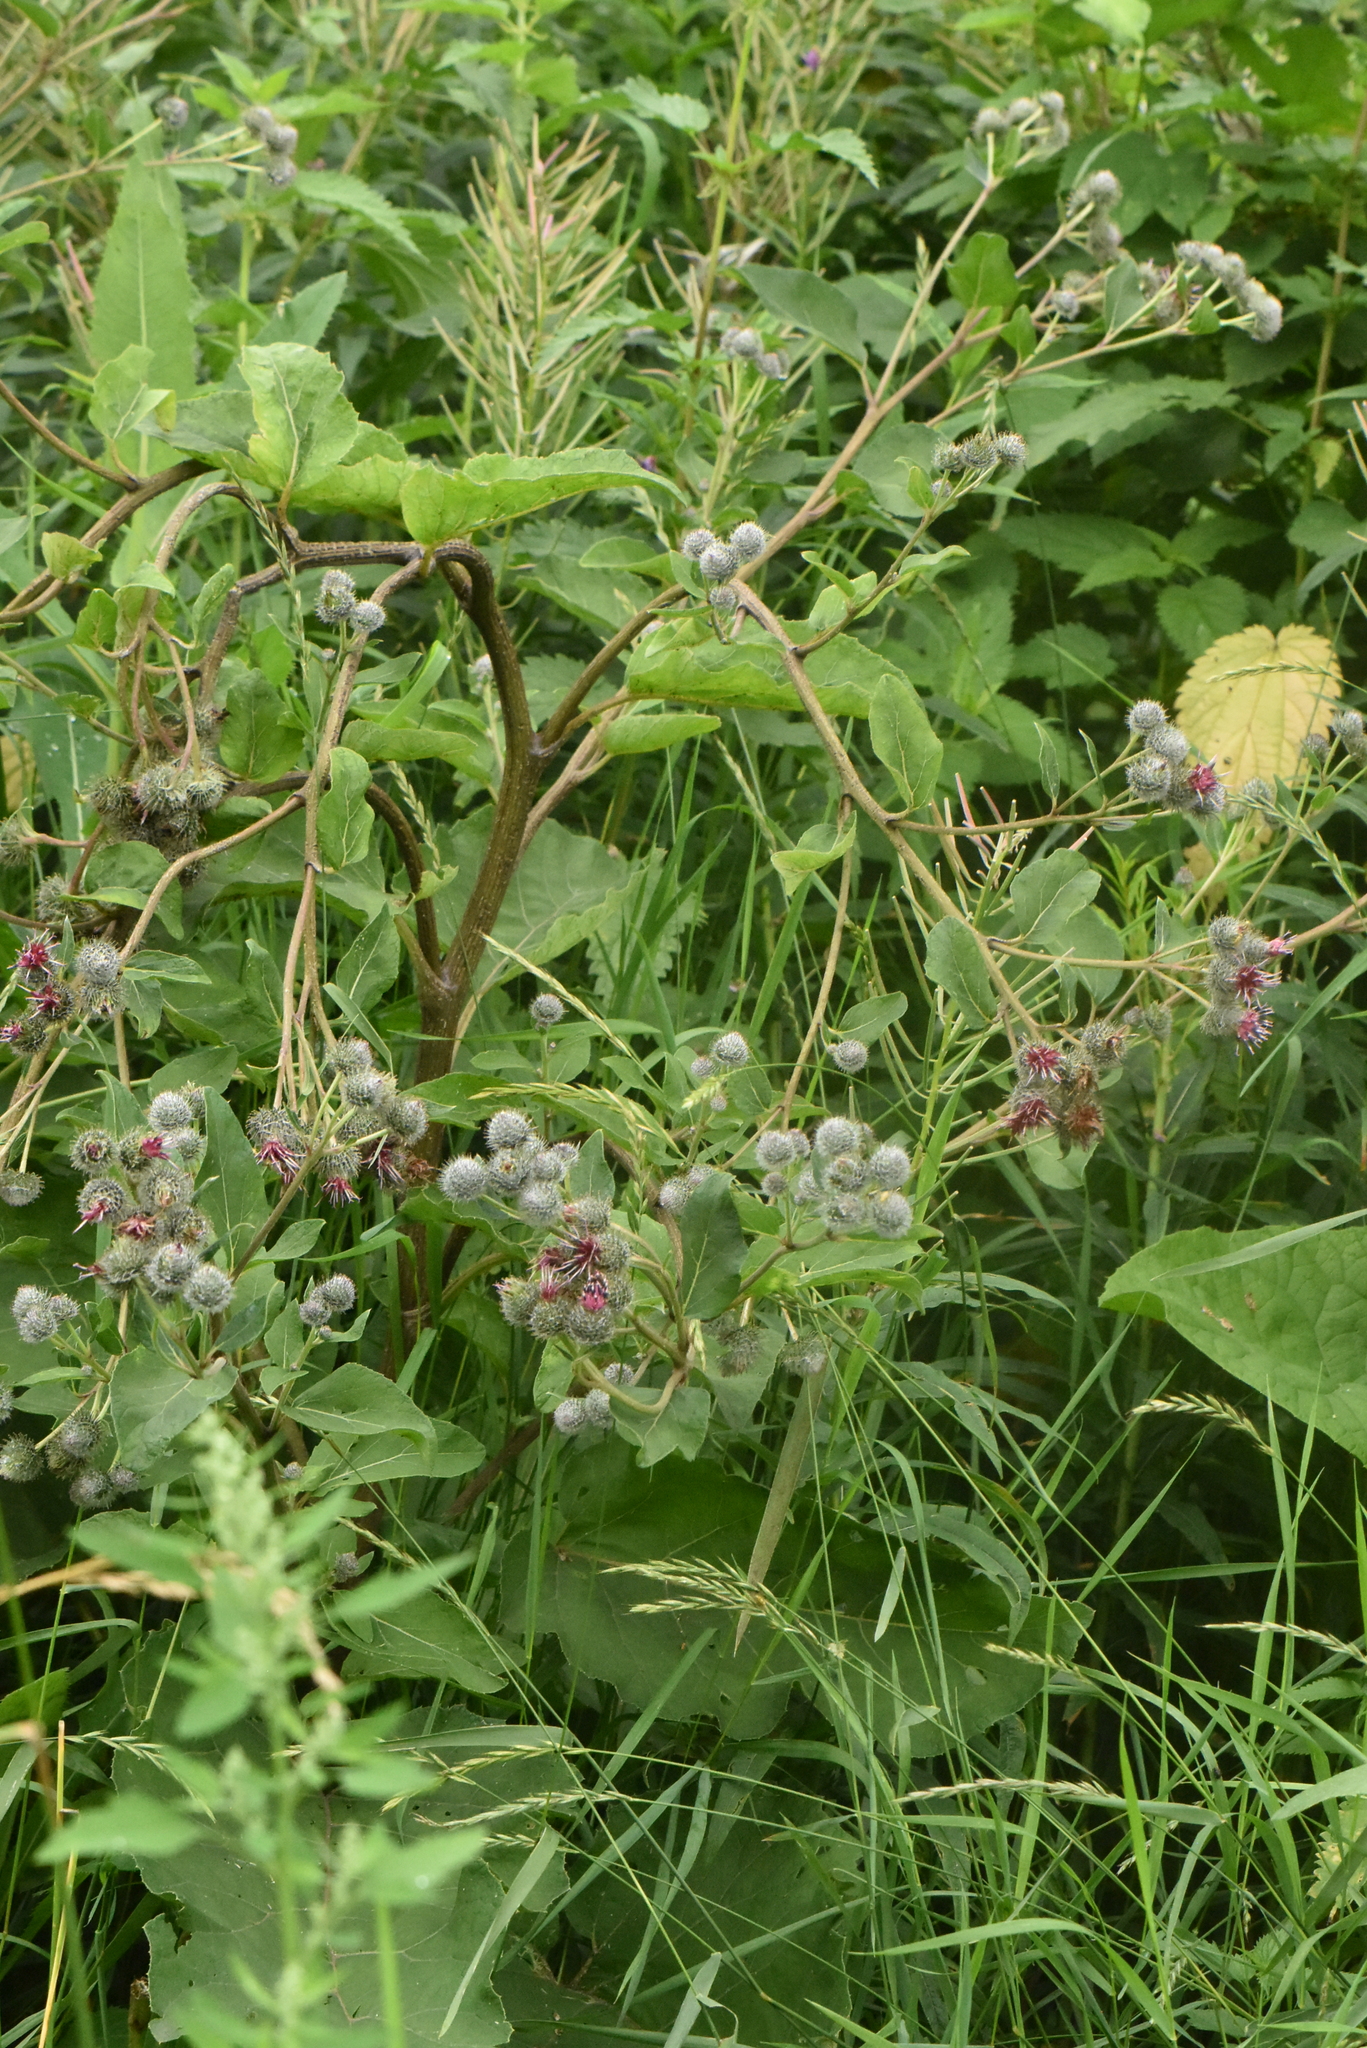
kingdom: Plantae
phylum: Tracheophyta
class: Magnoliopsida
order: Asterales
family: Asteraceae
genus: Arctium
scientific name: Arctium tomentosum
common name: Woolly burdock
